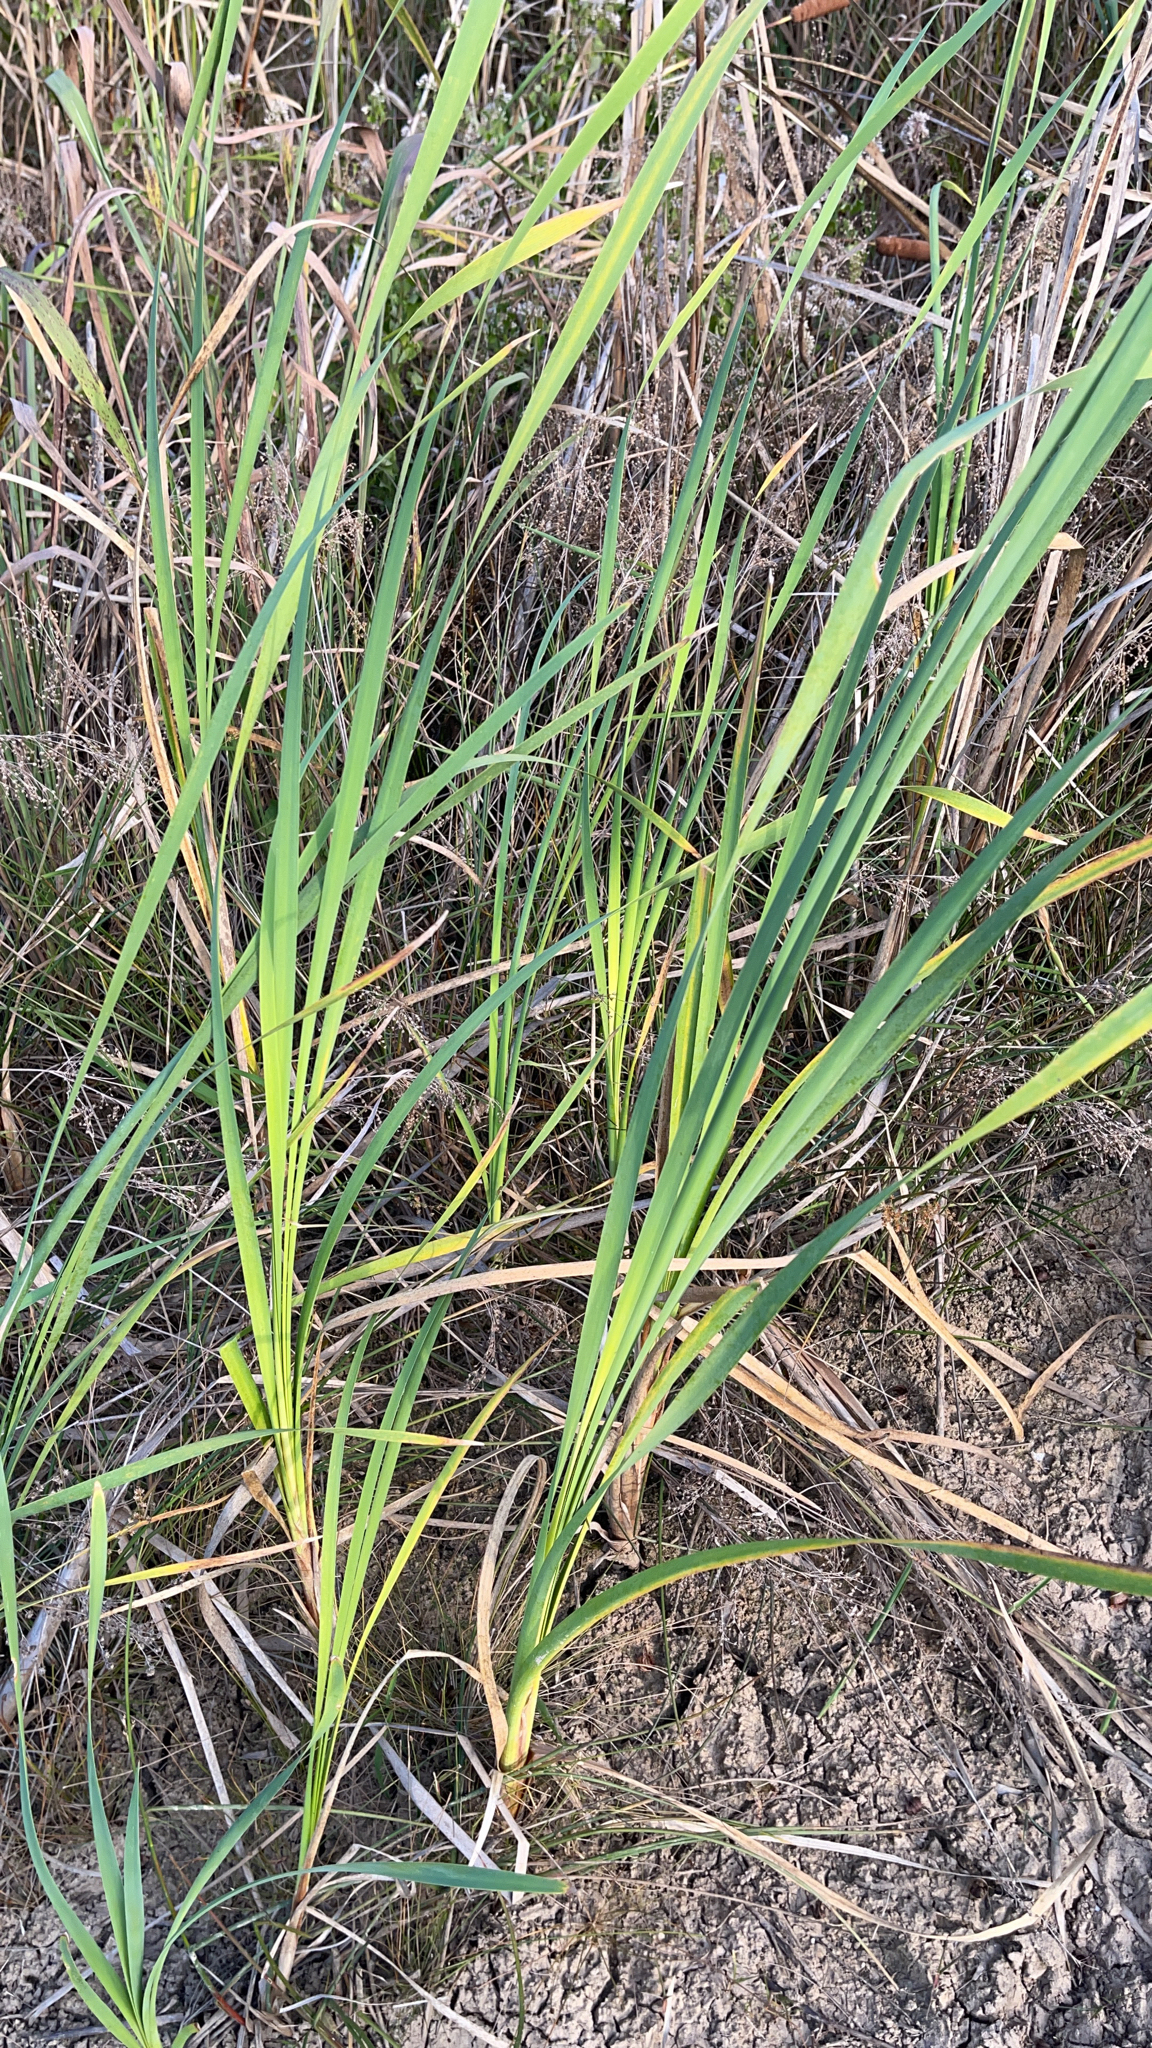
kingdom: Plantae
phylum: Tracheophyta
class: Liliopsida
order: Poales
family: Typhaceae
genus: Typha
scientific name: Typha
